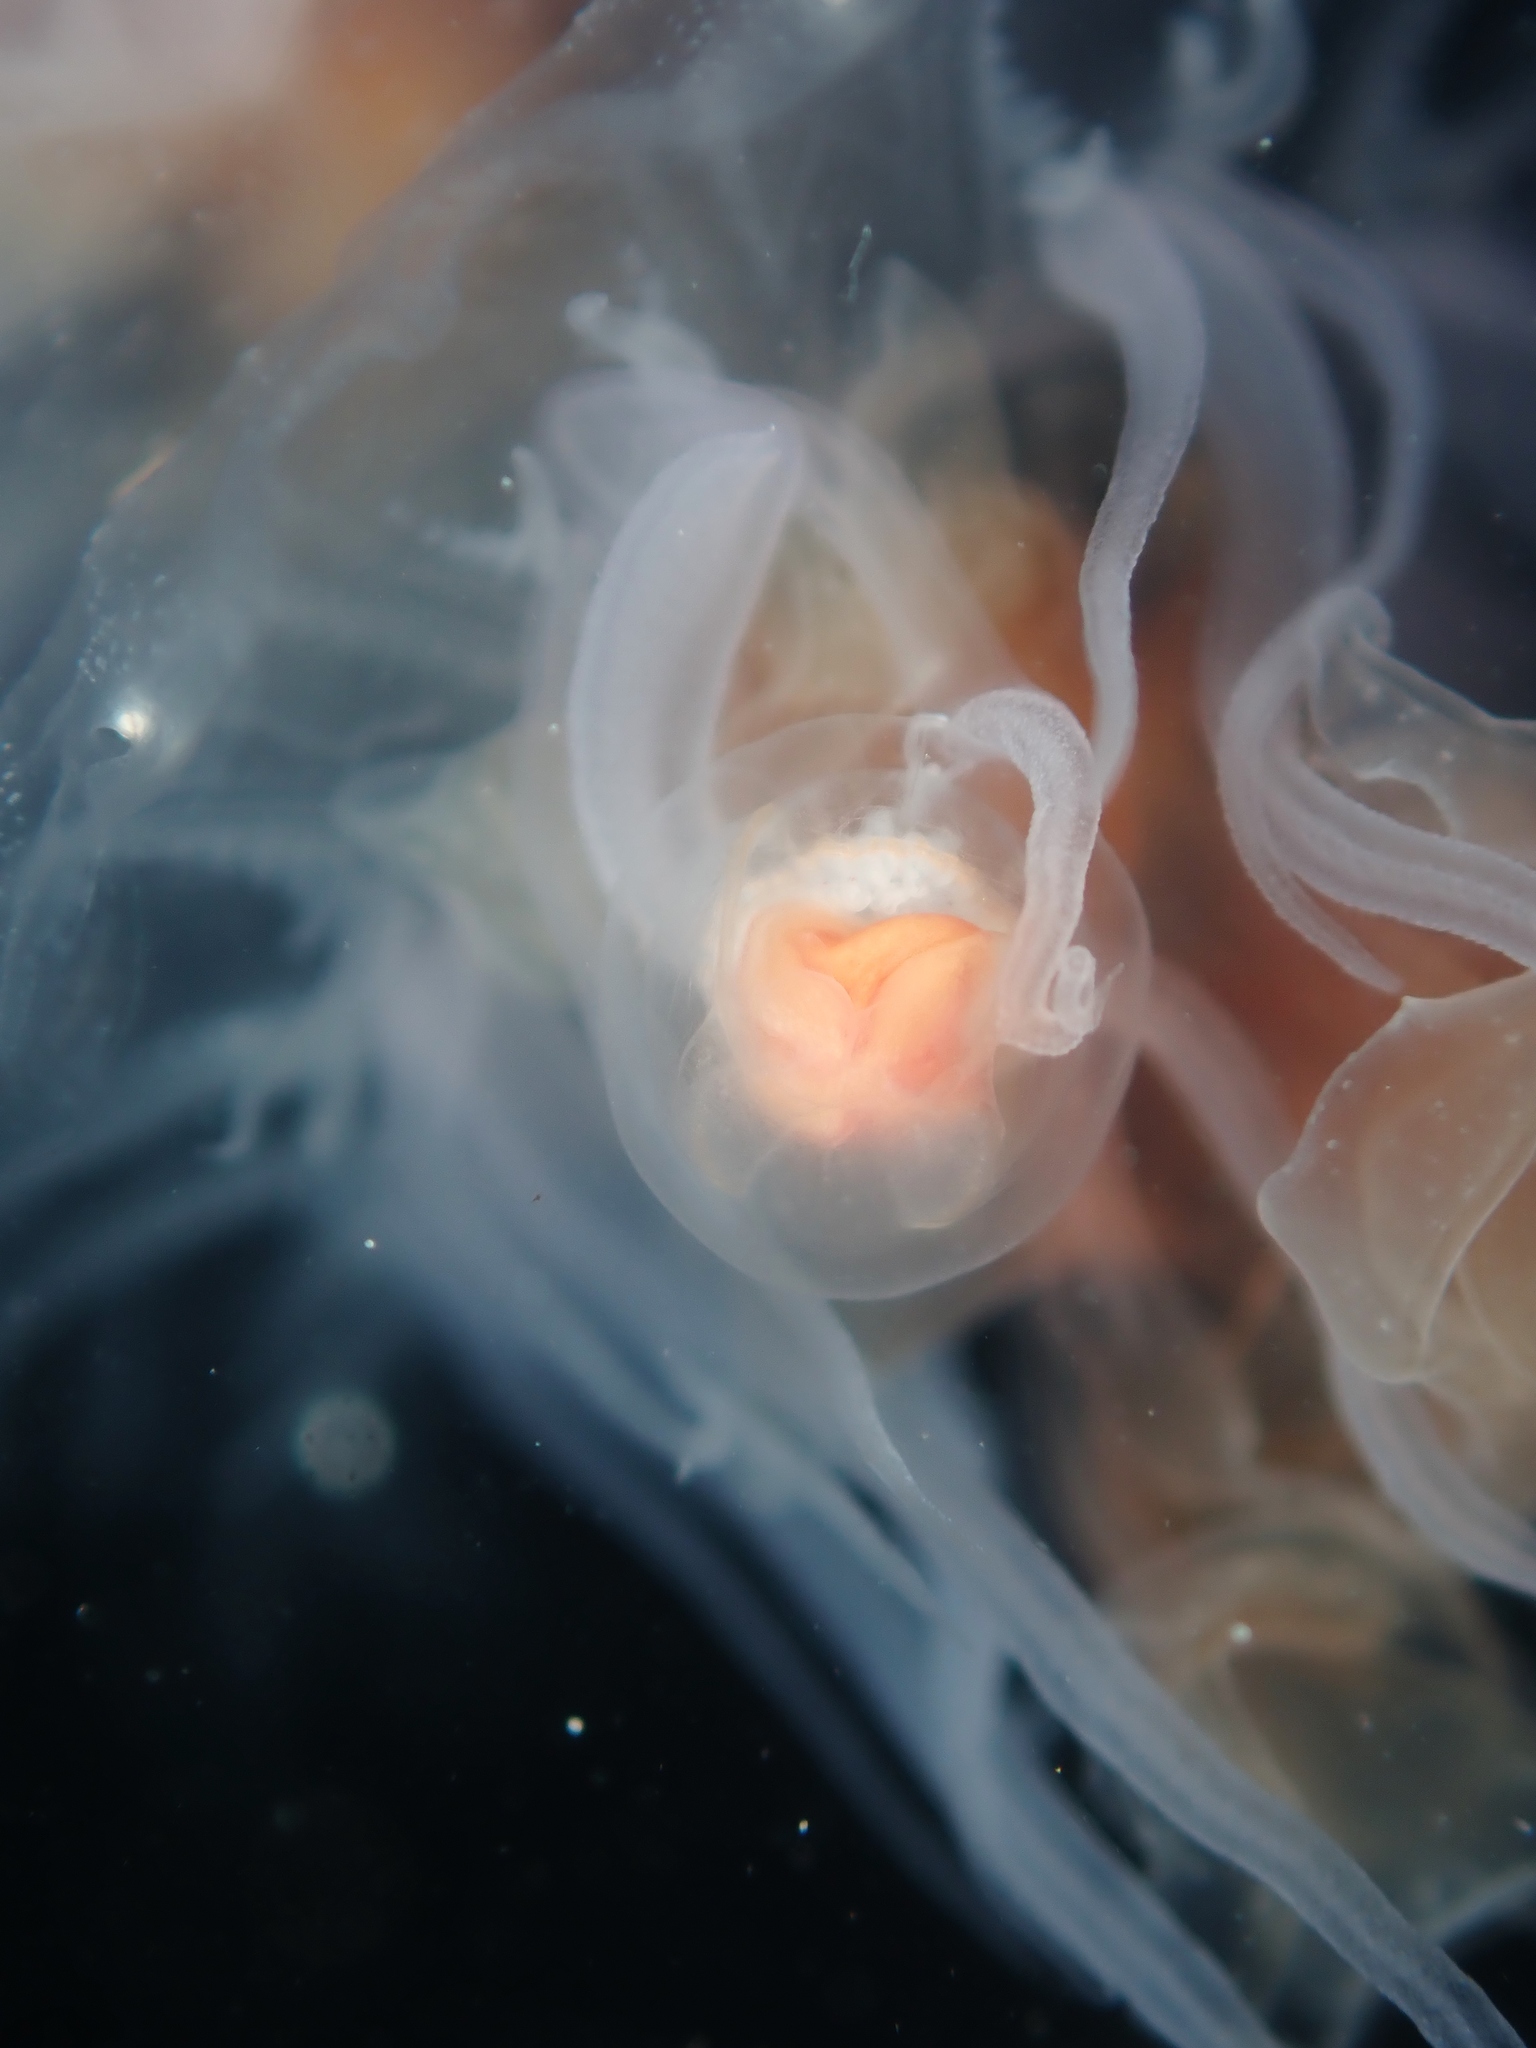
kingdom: Animalia
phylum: Cnidaria
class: Hydrozoa
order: Anthoathecata
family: Oceaniidae
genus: Turritopsis
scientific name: Turritopsis rubra
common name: Crimson jelly
